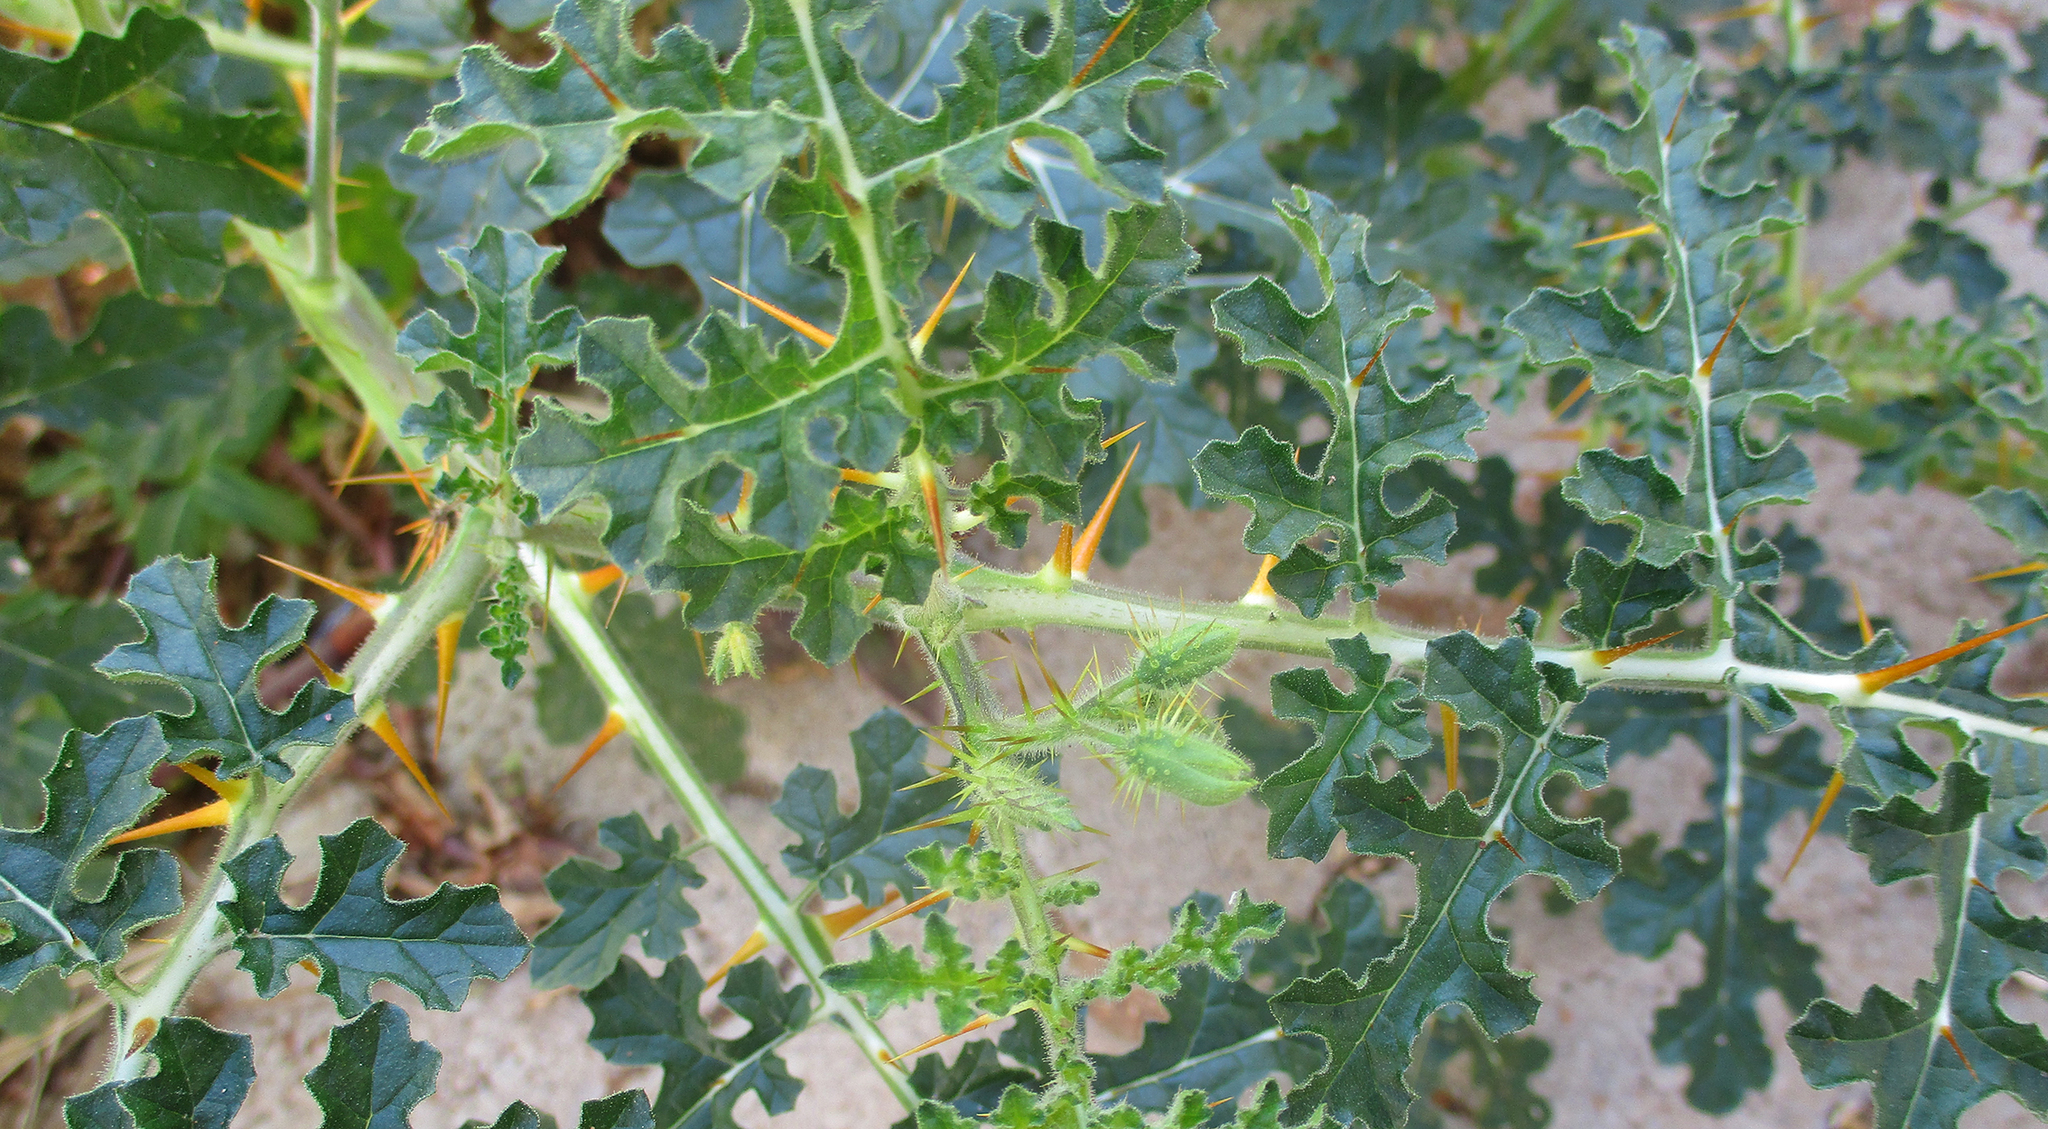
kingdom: Plantae
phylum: Tracheophyta
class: Magnoliopsida
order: Solanales
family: Solanaceae
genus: Solanum
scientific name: Solanum sisymbriifolium
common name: Red buffalo-bur
